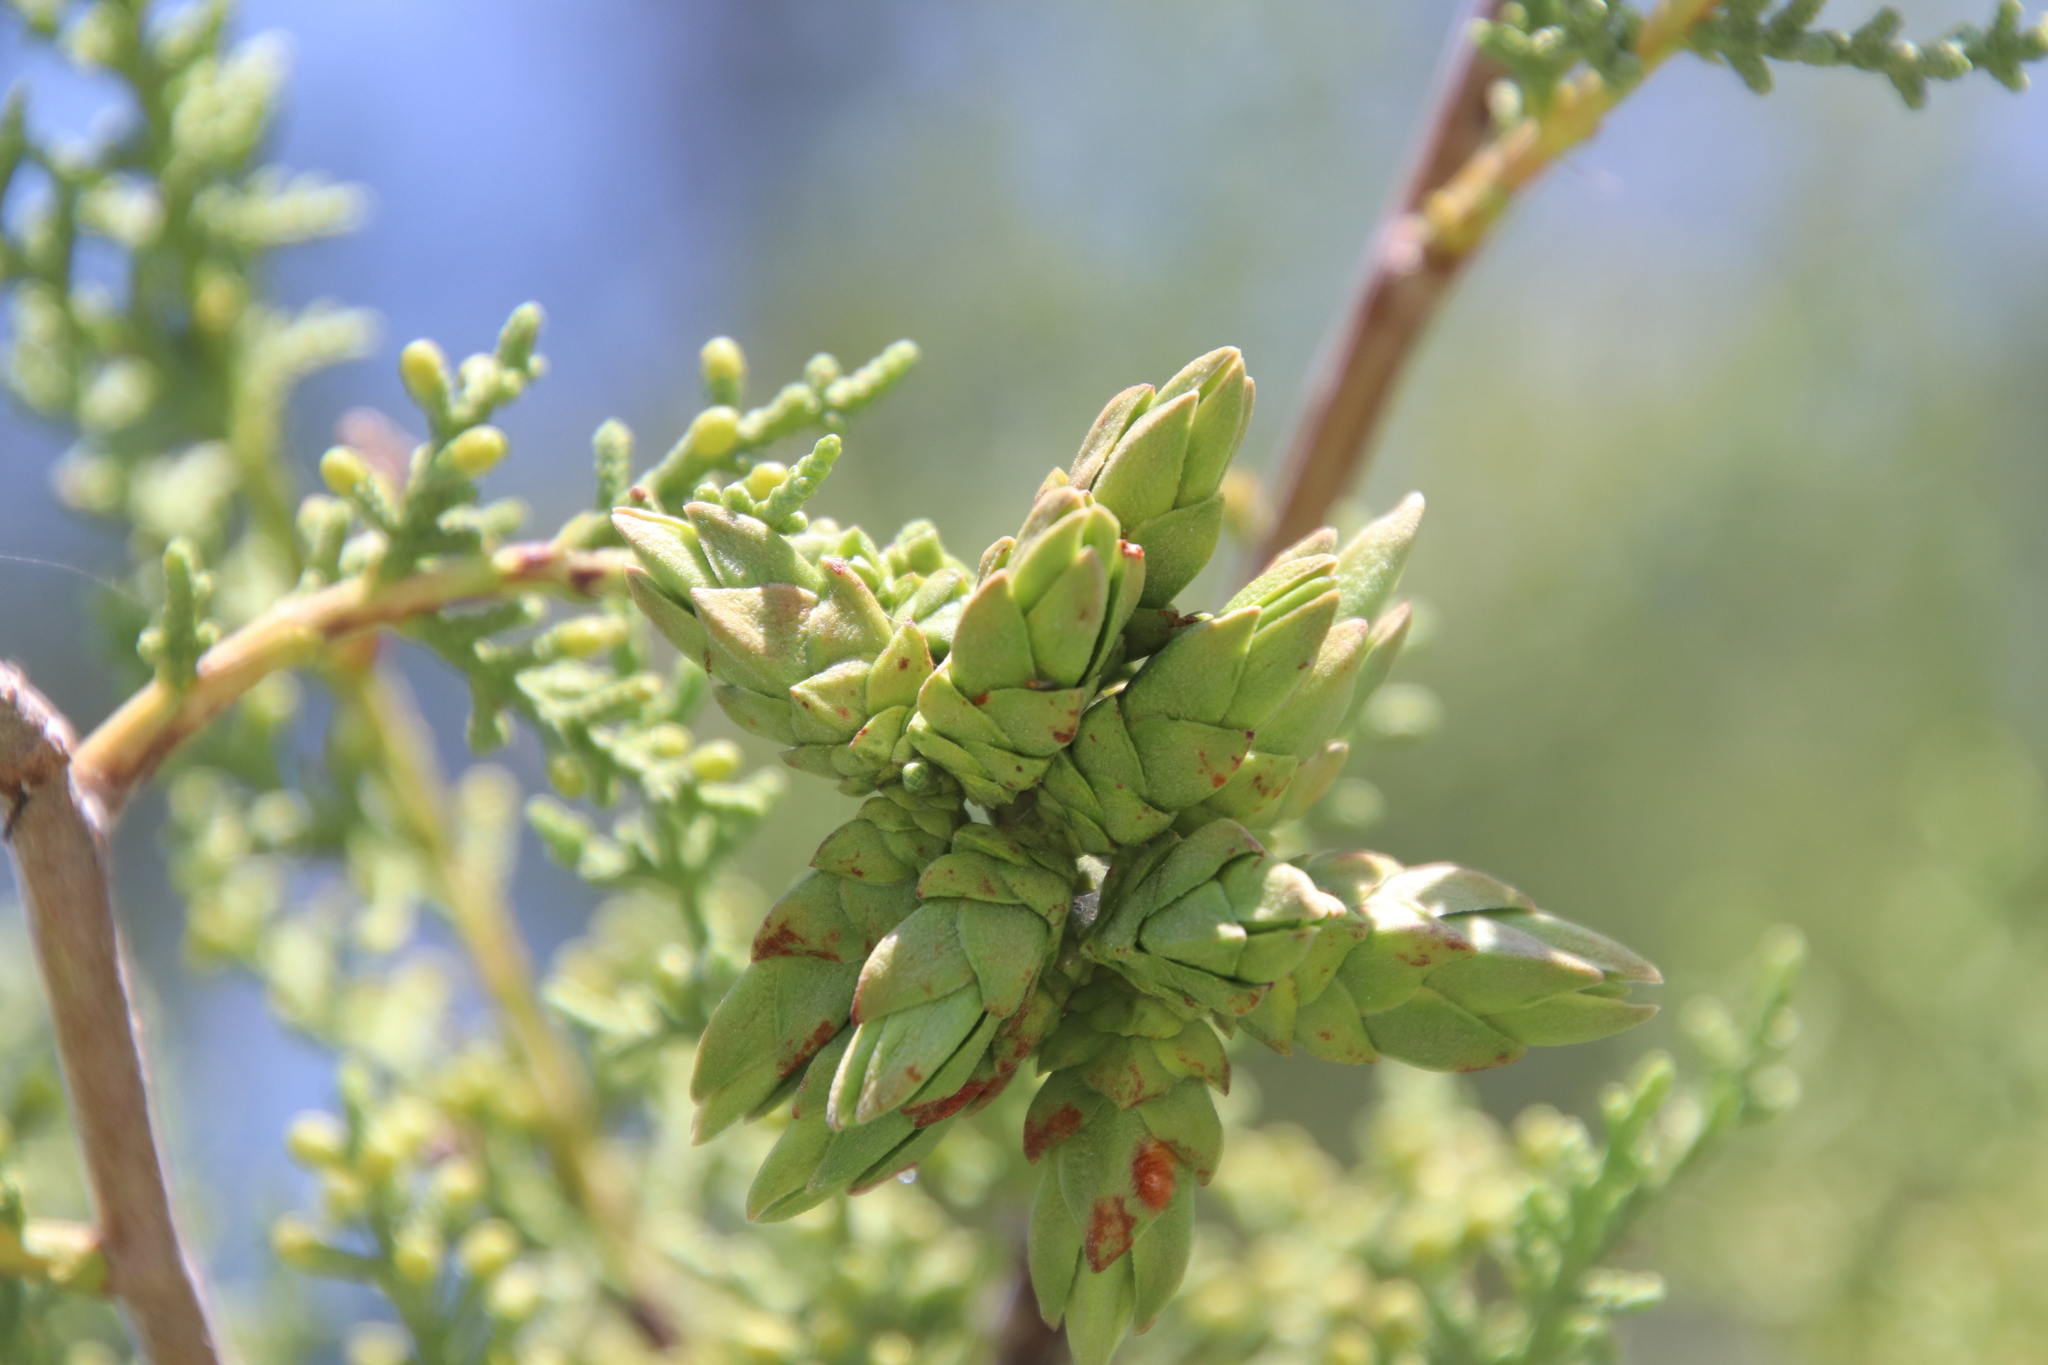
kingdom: Animalia
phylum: Arthropoda
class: Insecta
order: Diptera
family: Cecidomyiidae
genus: Oligotrophus
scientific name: Oligotrophus cupressi
